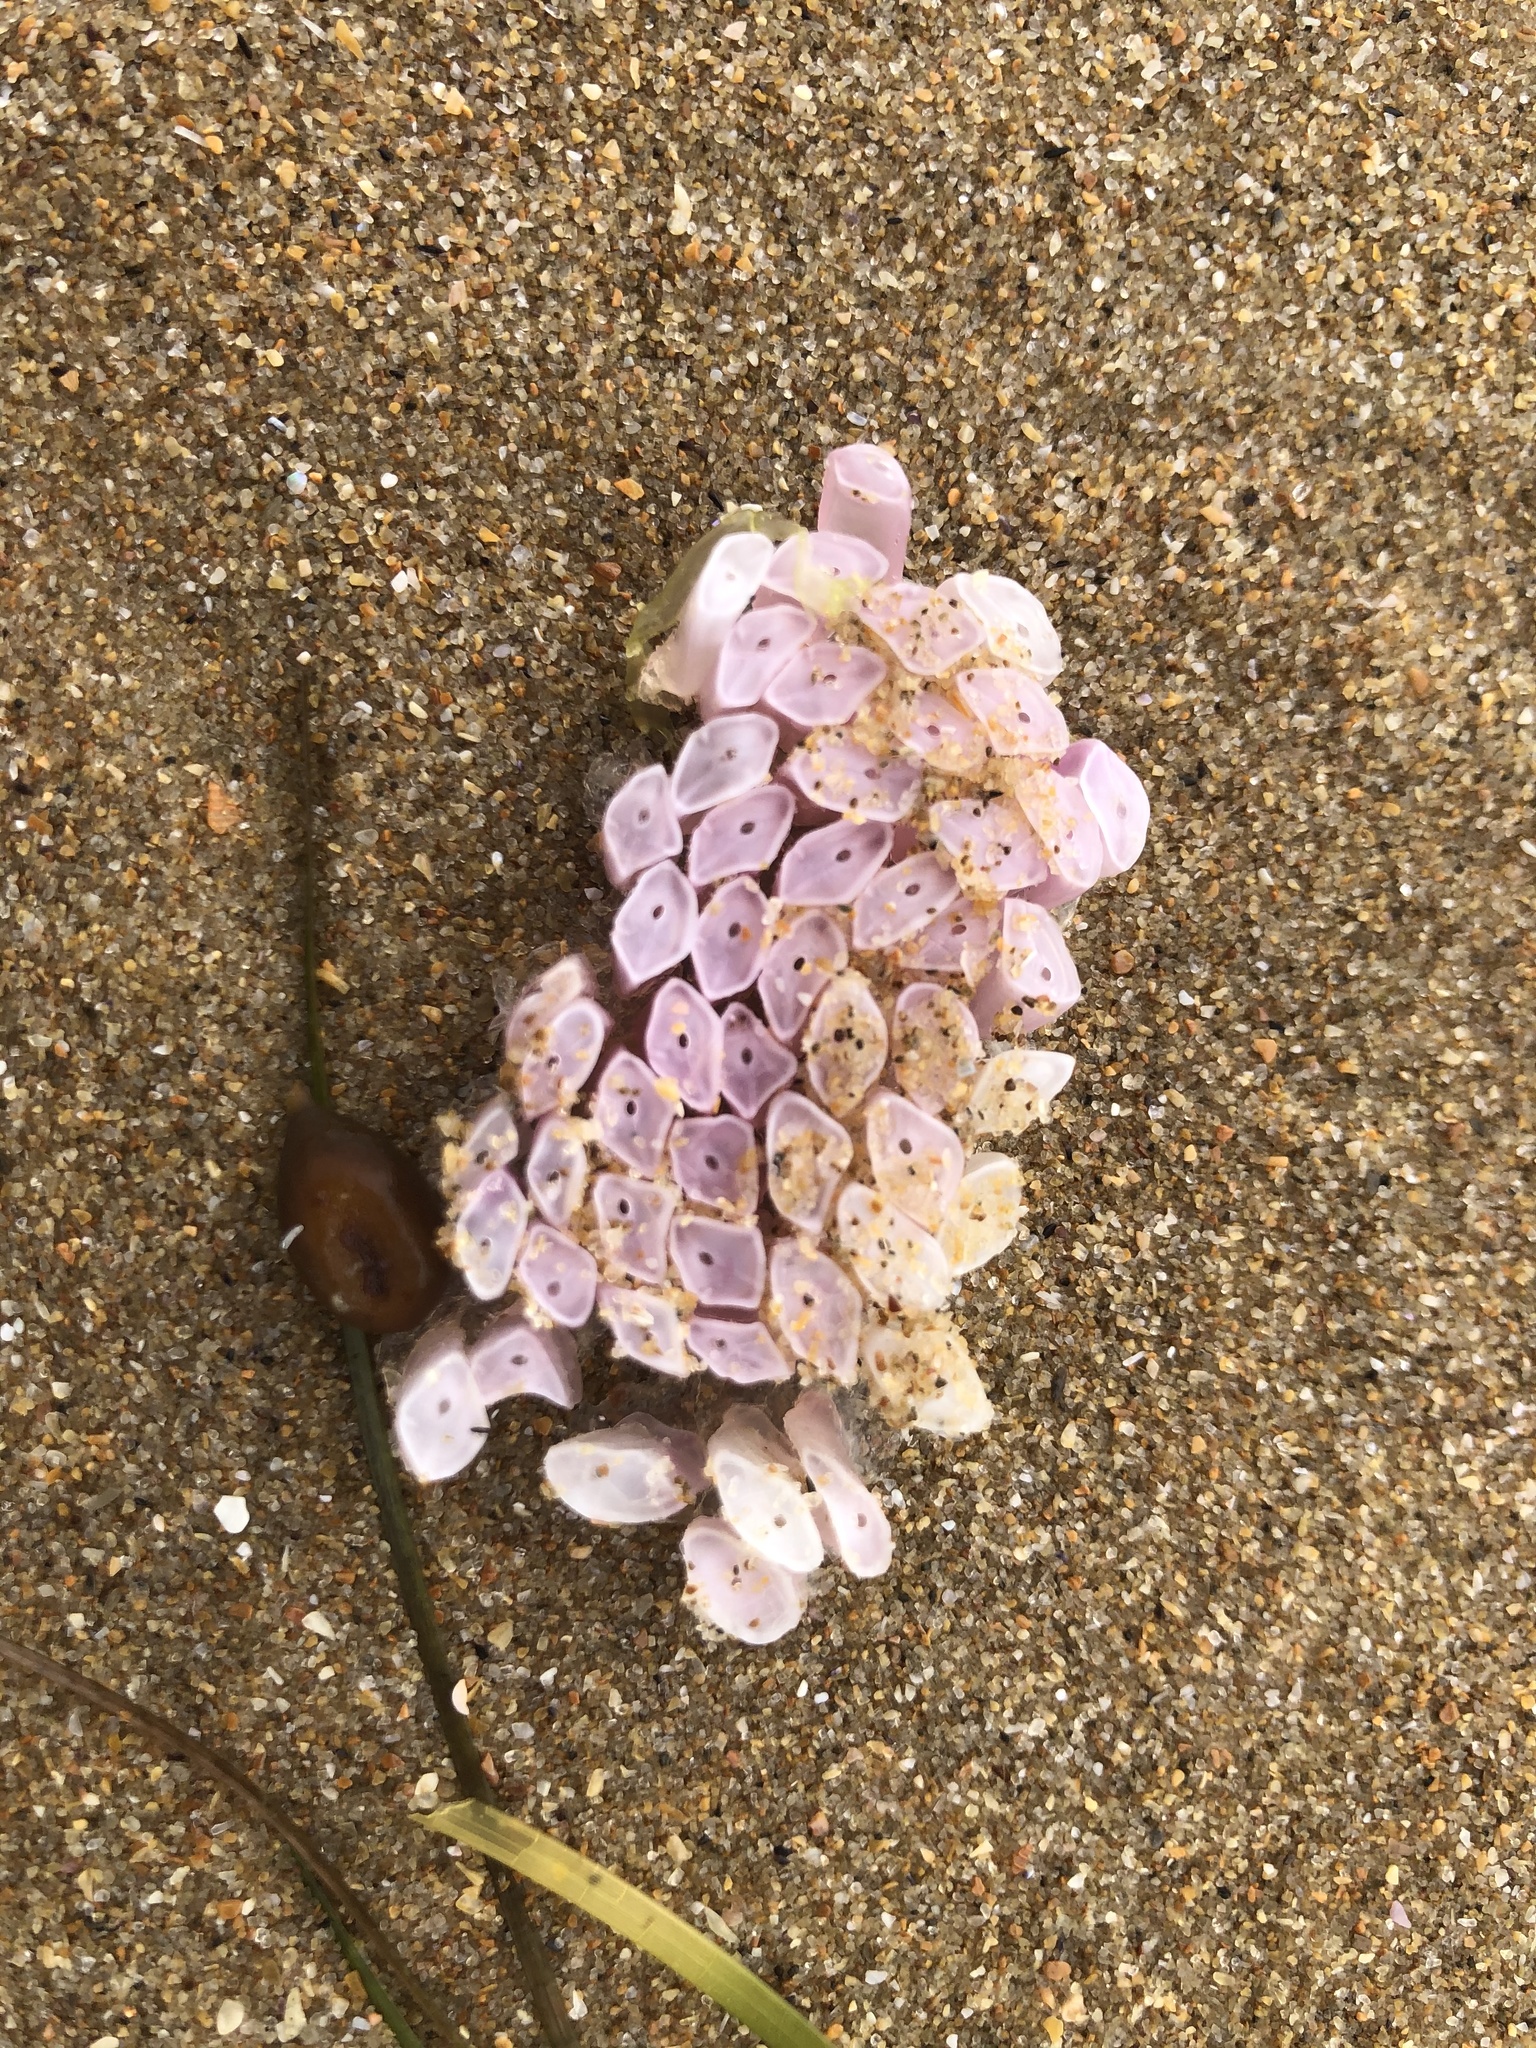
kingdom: Animalia
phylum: Mollusca
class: Gastropoda
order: Neogastropoda
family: Muricidae
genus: Dicathais
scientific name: Dicathais orbita
